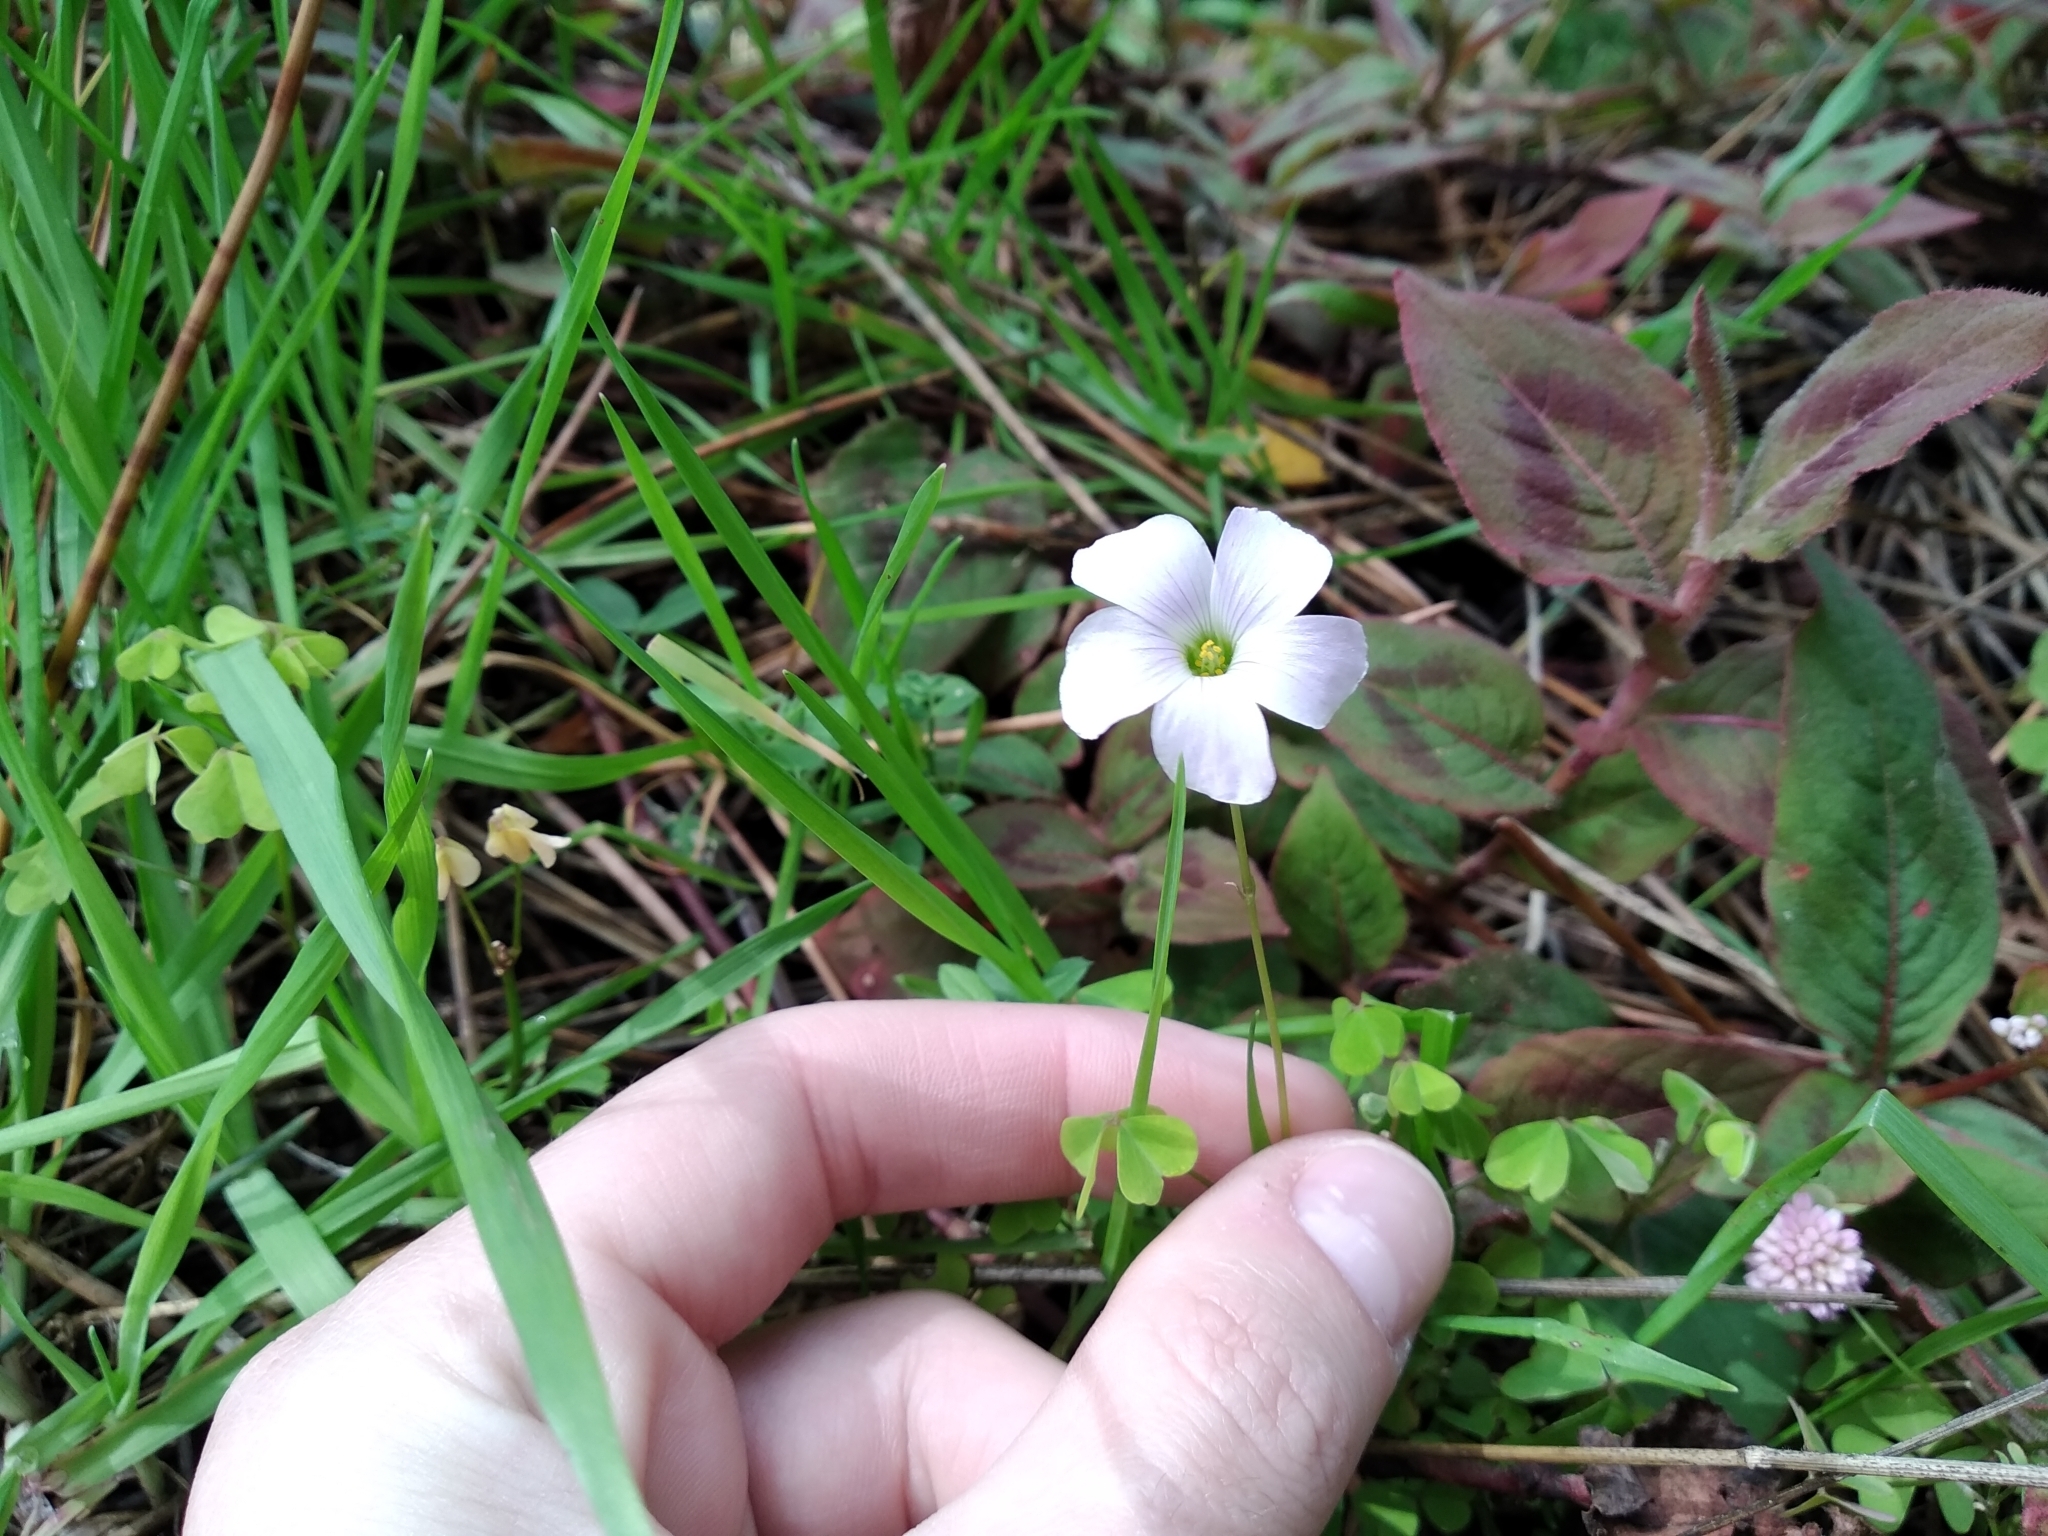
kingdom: Plantae
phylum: Tracheophyta
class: Magnoliopsida
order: Oxalidales
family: Oxalidaceae
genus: Oxalis
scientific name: Oxalis incarnata
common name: Pale pink-sorrel
